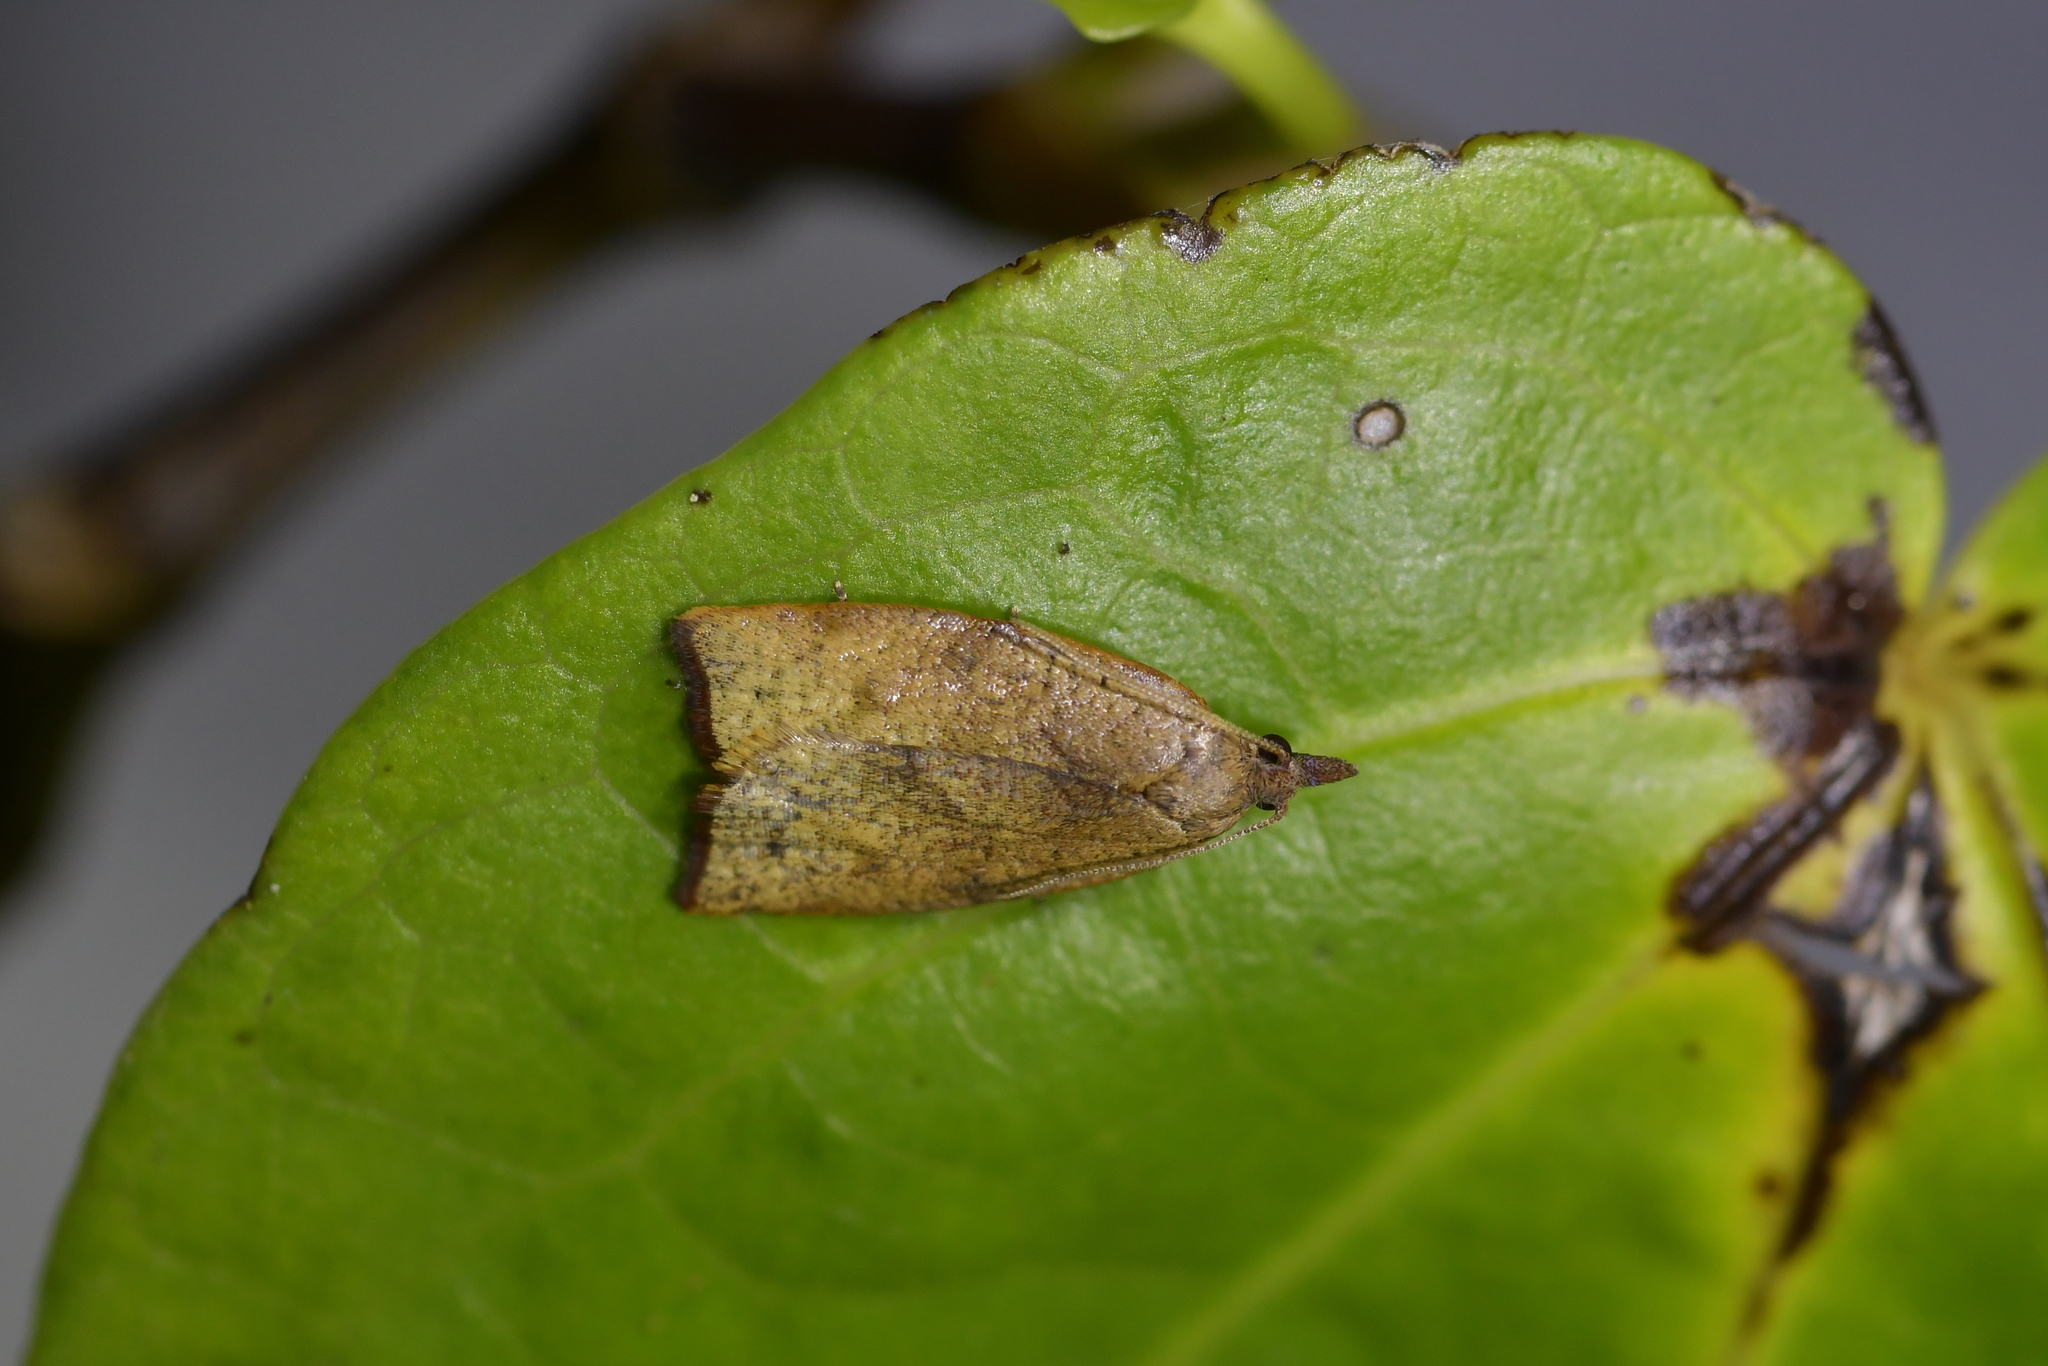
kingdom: Animalia
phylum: Arthropoda
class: Insecta
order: Lepidoptera
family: Tortricidae
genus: Apoctena
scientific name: Apoctena flavescens
